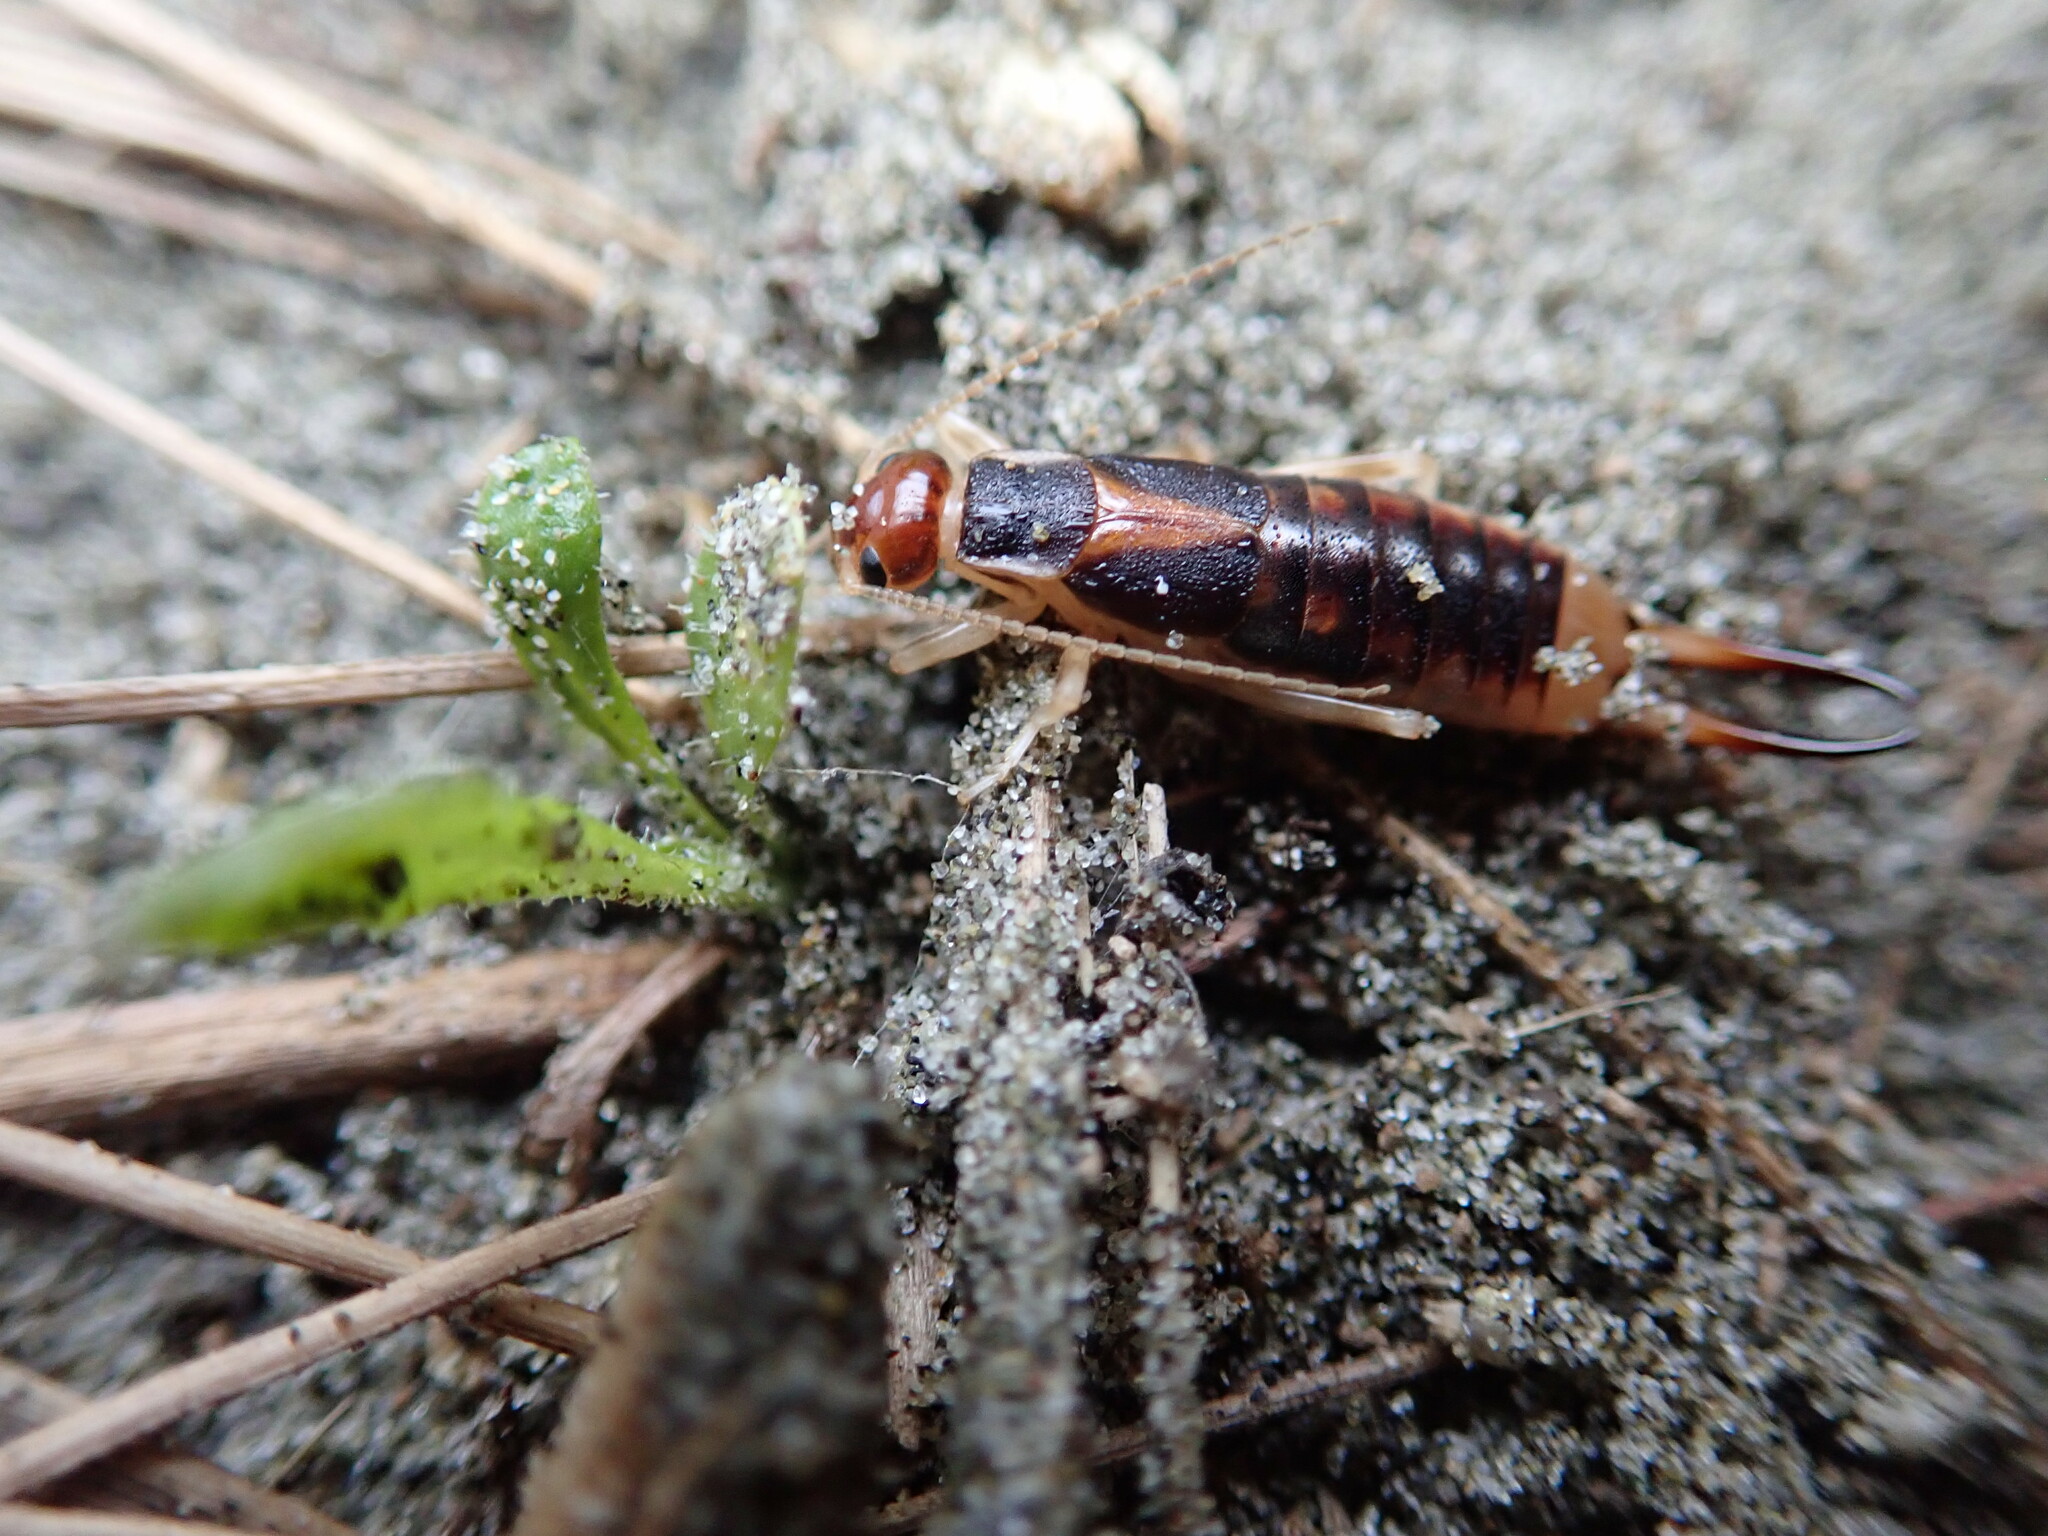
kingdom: Animalia
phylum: Arthropoda
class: Insecta
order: Dermaptera
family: Labiduridae
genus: Labidura
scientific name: Labidura riparia
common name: Striped earwig
